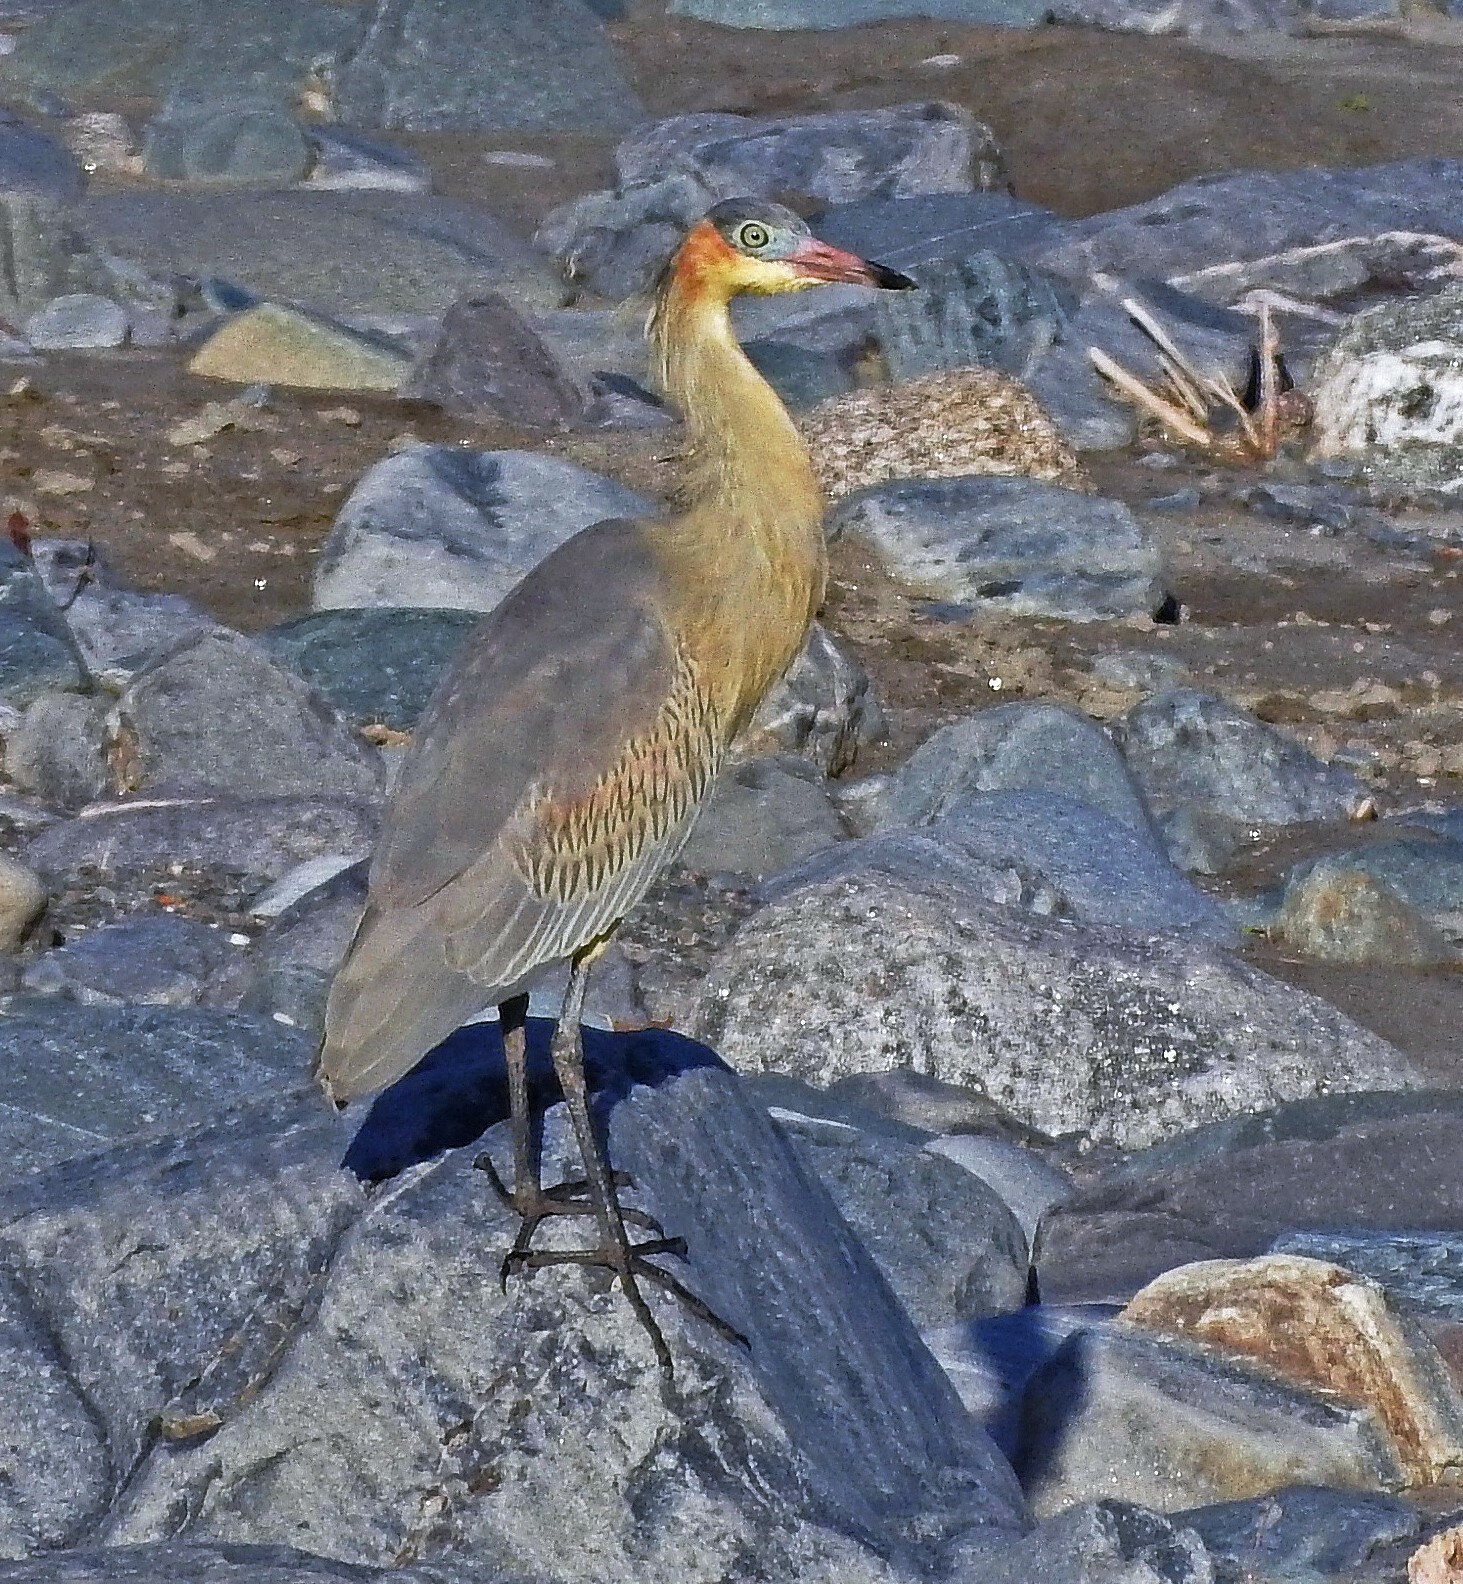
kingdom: Animalia
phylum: Chordata
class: Aves
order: Pelecaniformes
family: Ardeidae
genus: Syrigma
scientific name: Syrigma sibilatrix
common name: Whistling heron
